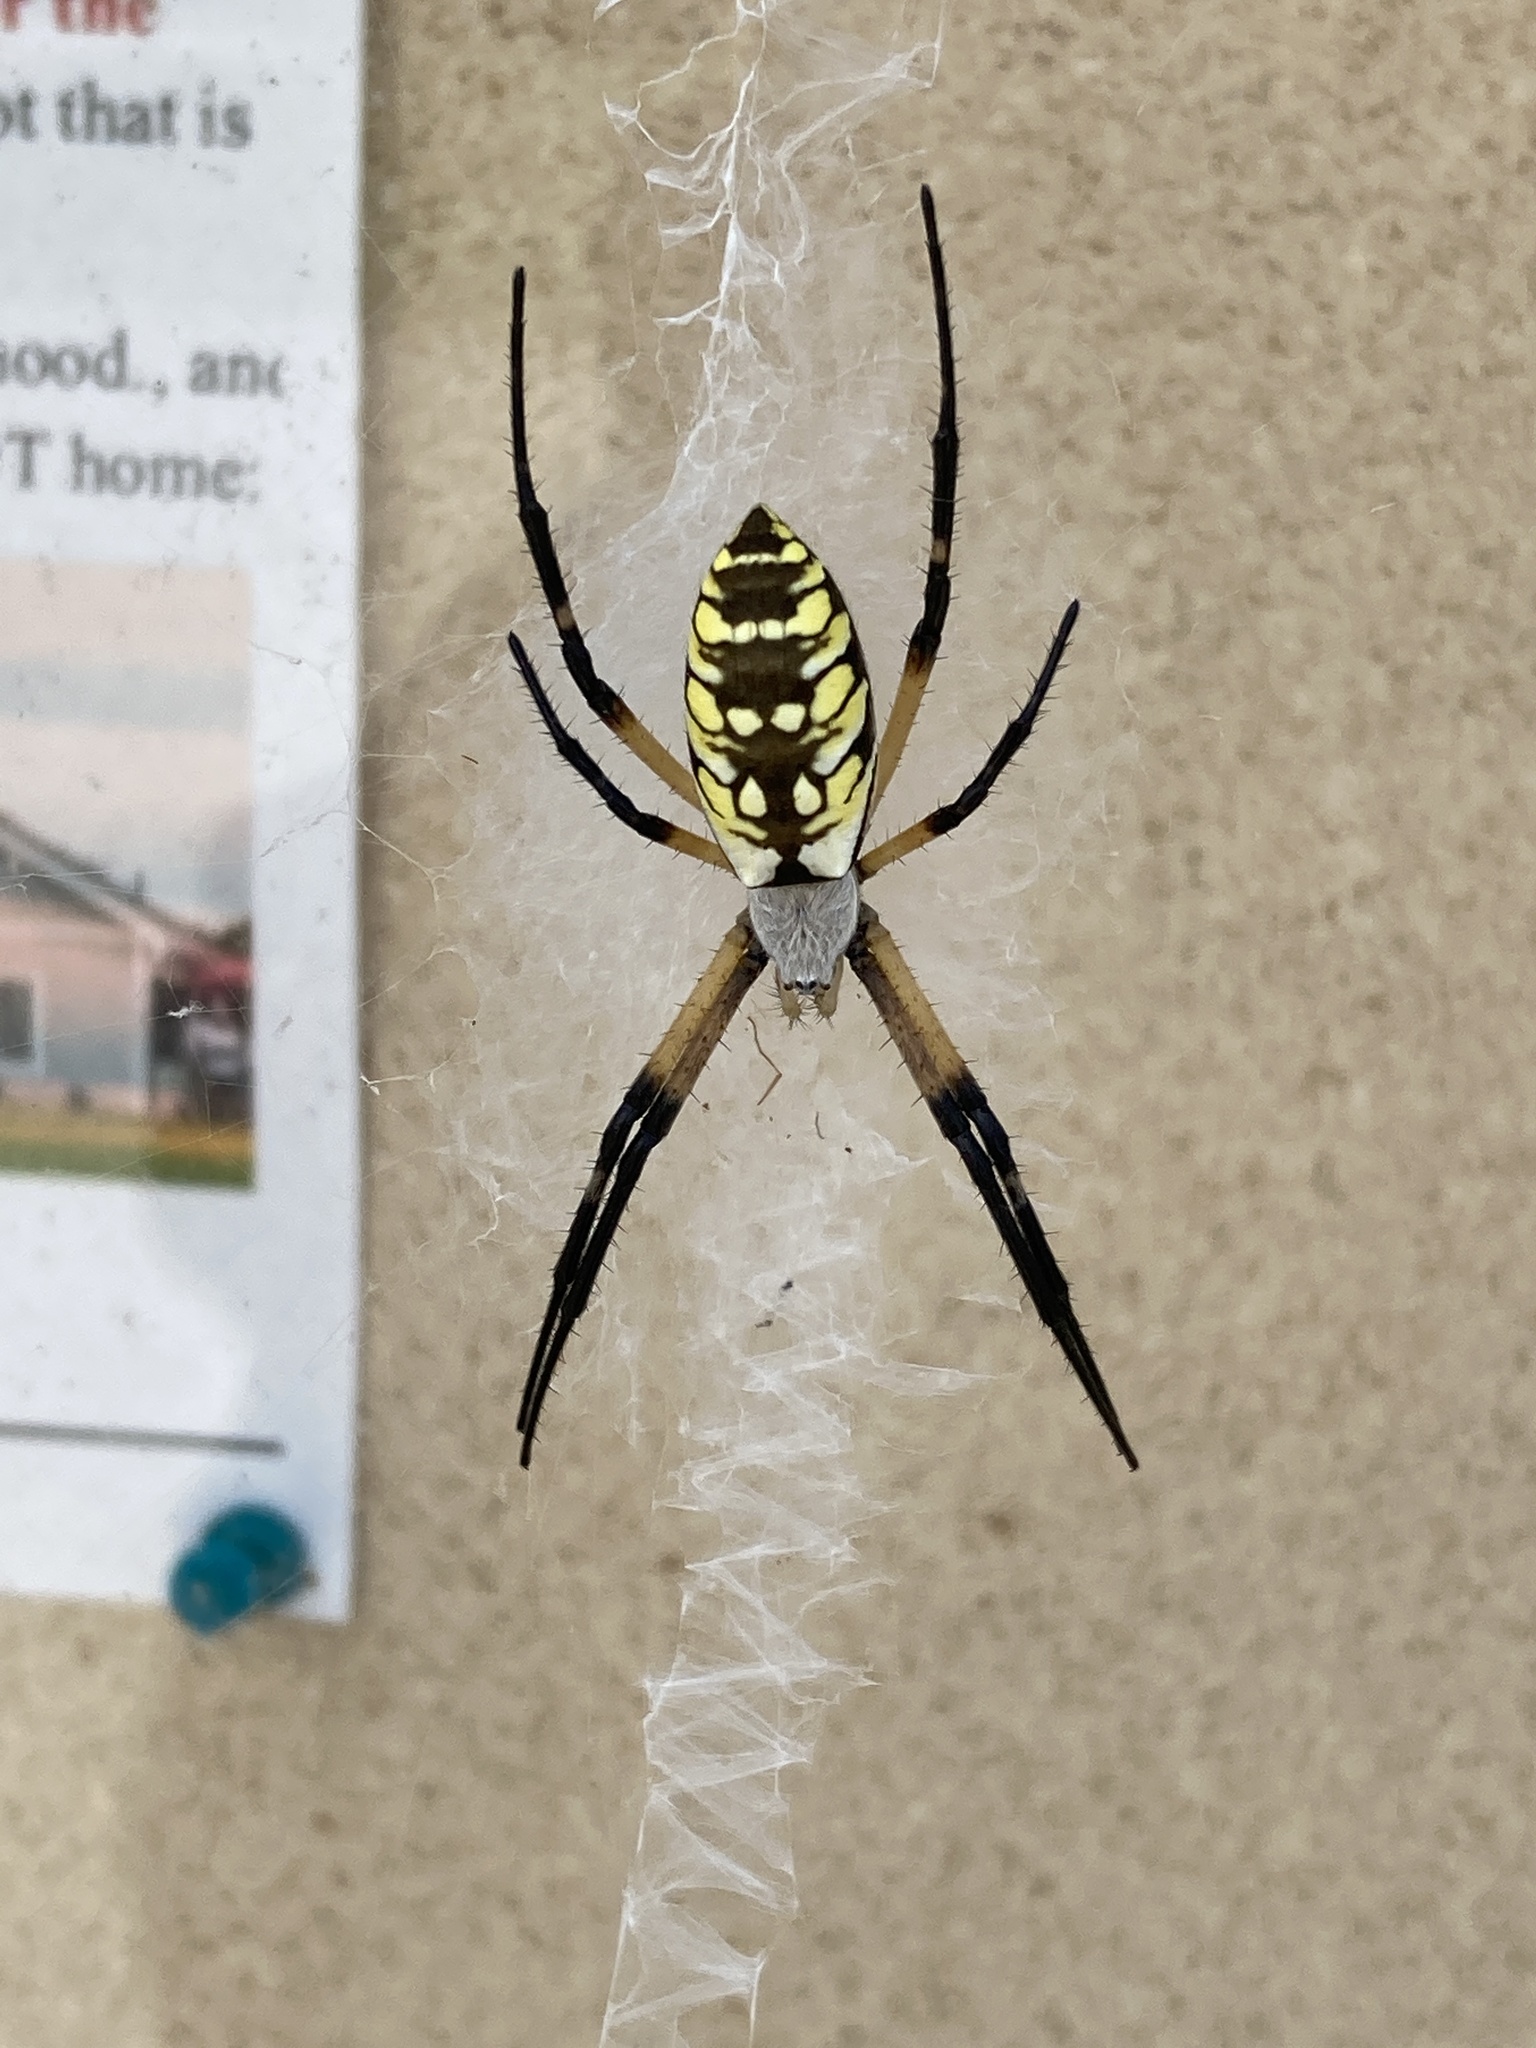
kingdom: Animalia
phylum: Arthropoda
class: Arachnida
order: Araneae
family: Araneidae
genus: Argiope
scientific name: Argiope aurantia
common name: Orb weavers
